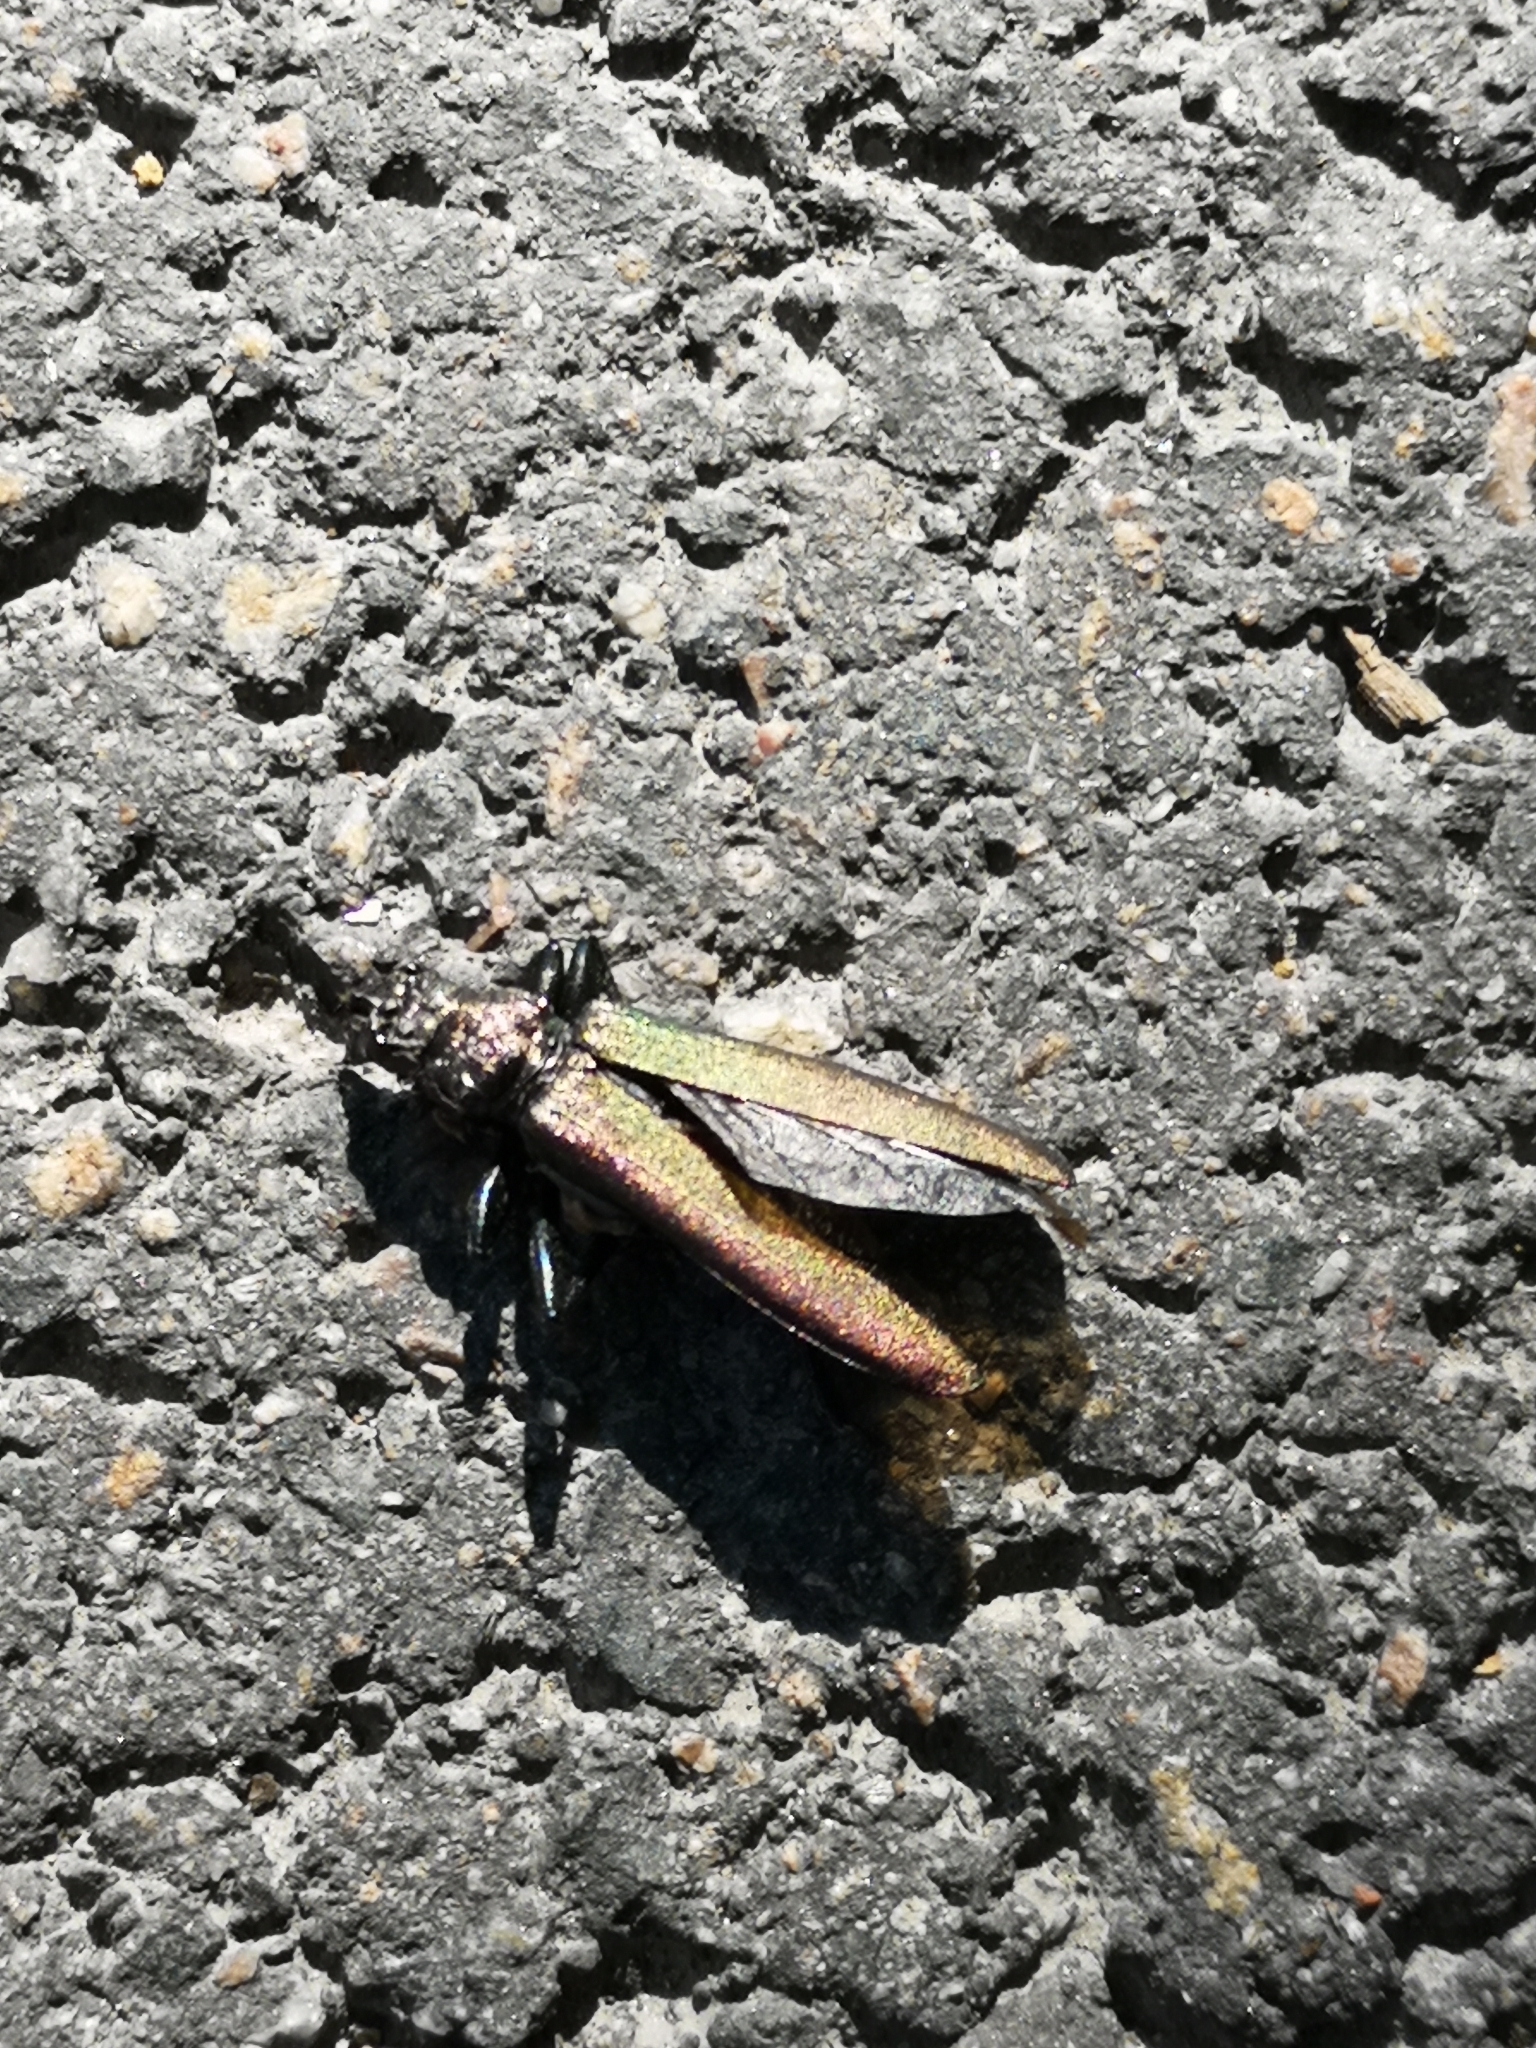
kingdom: Animalia
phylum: Arthropoda
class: Insecta
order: Coleoptera
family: Cerambycidae
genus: Aromia
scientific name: Aromia moschata
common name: Musk beetle
